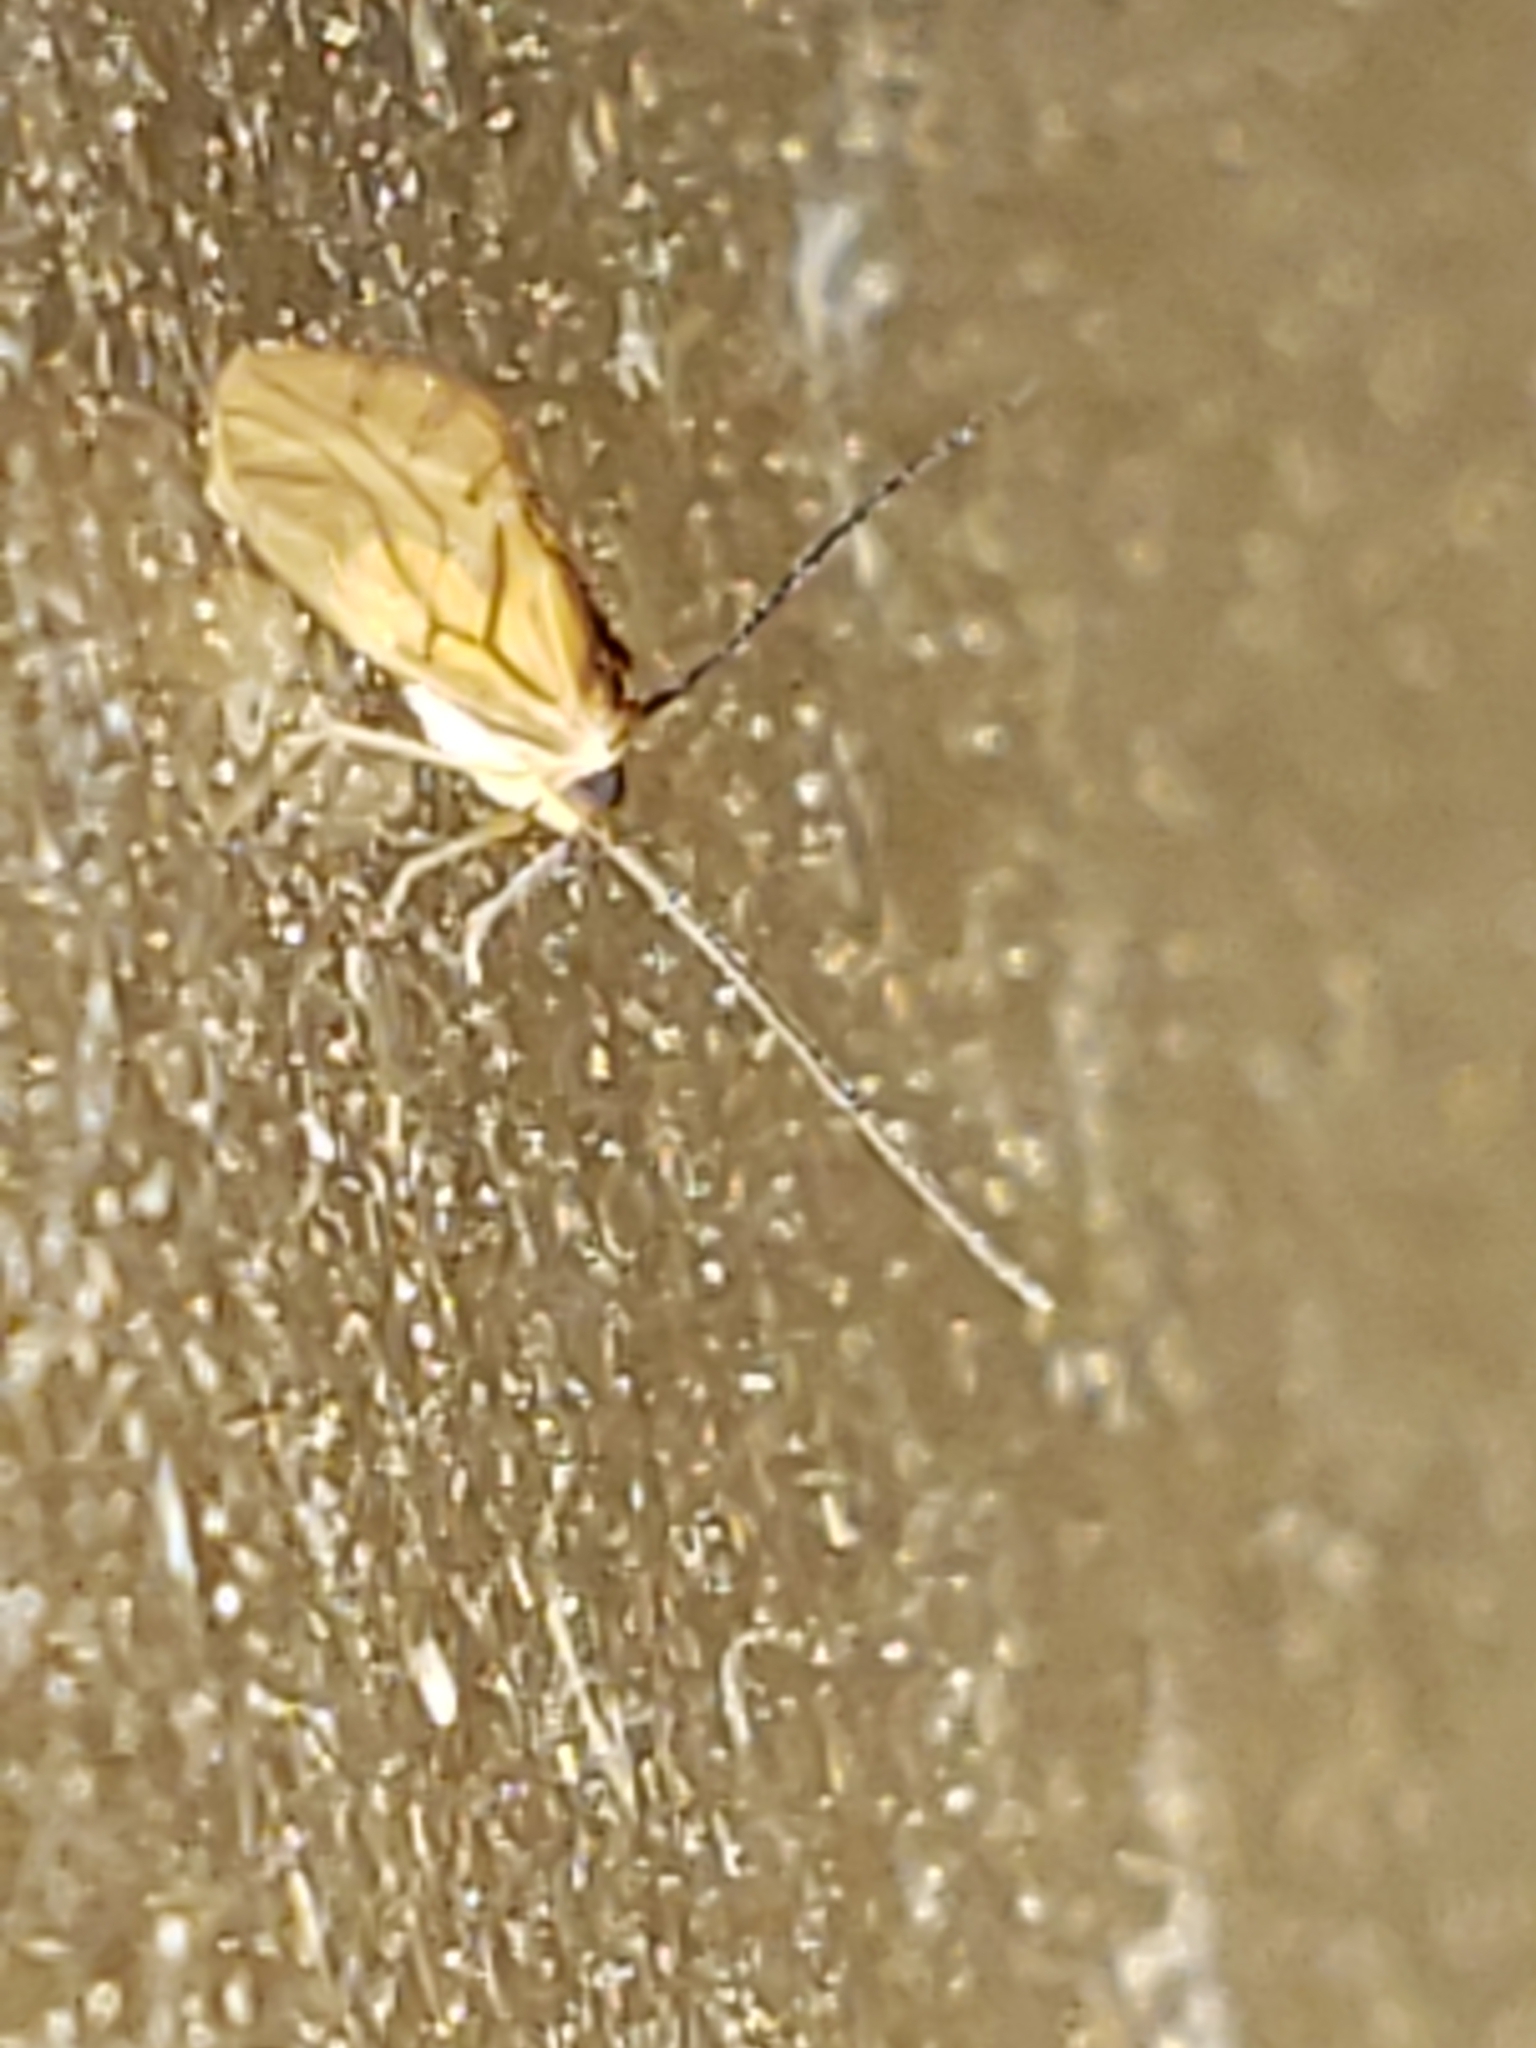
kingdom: Animalia
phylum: Arthropoda
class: Insecta
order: Psocodea
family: Caeciliusidae
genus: Valenzuela
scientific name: Valenzuela flavidus
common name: Yellow barklouse
